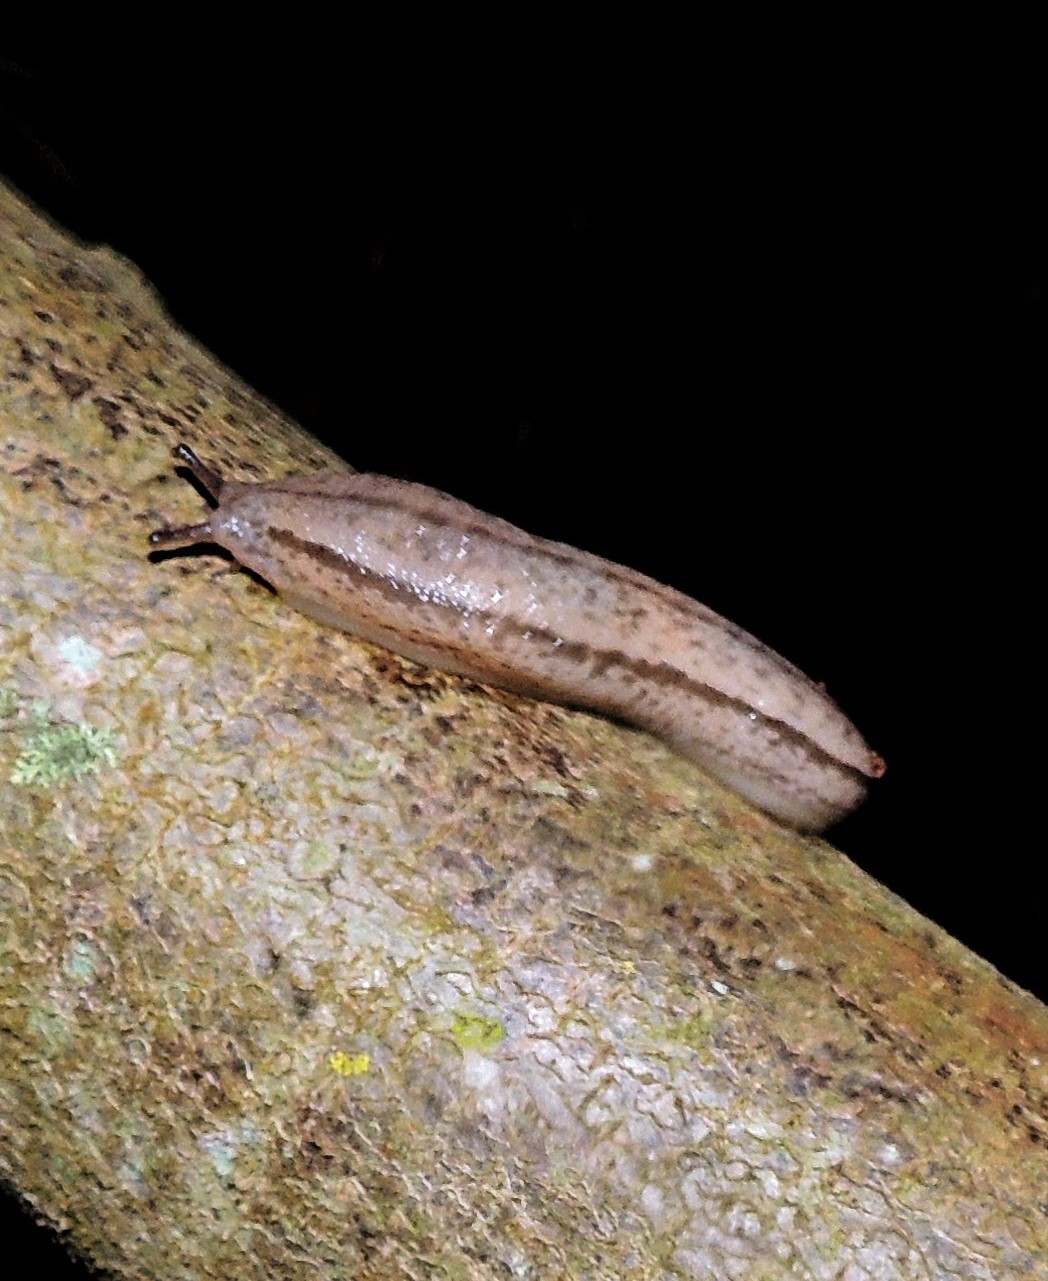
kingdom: Animalia
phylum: Mollusca
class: Gastropoda
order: Stylommatophora
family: Philomycidae
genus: Meghimatium
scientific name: Meghimatium pictum
